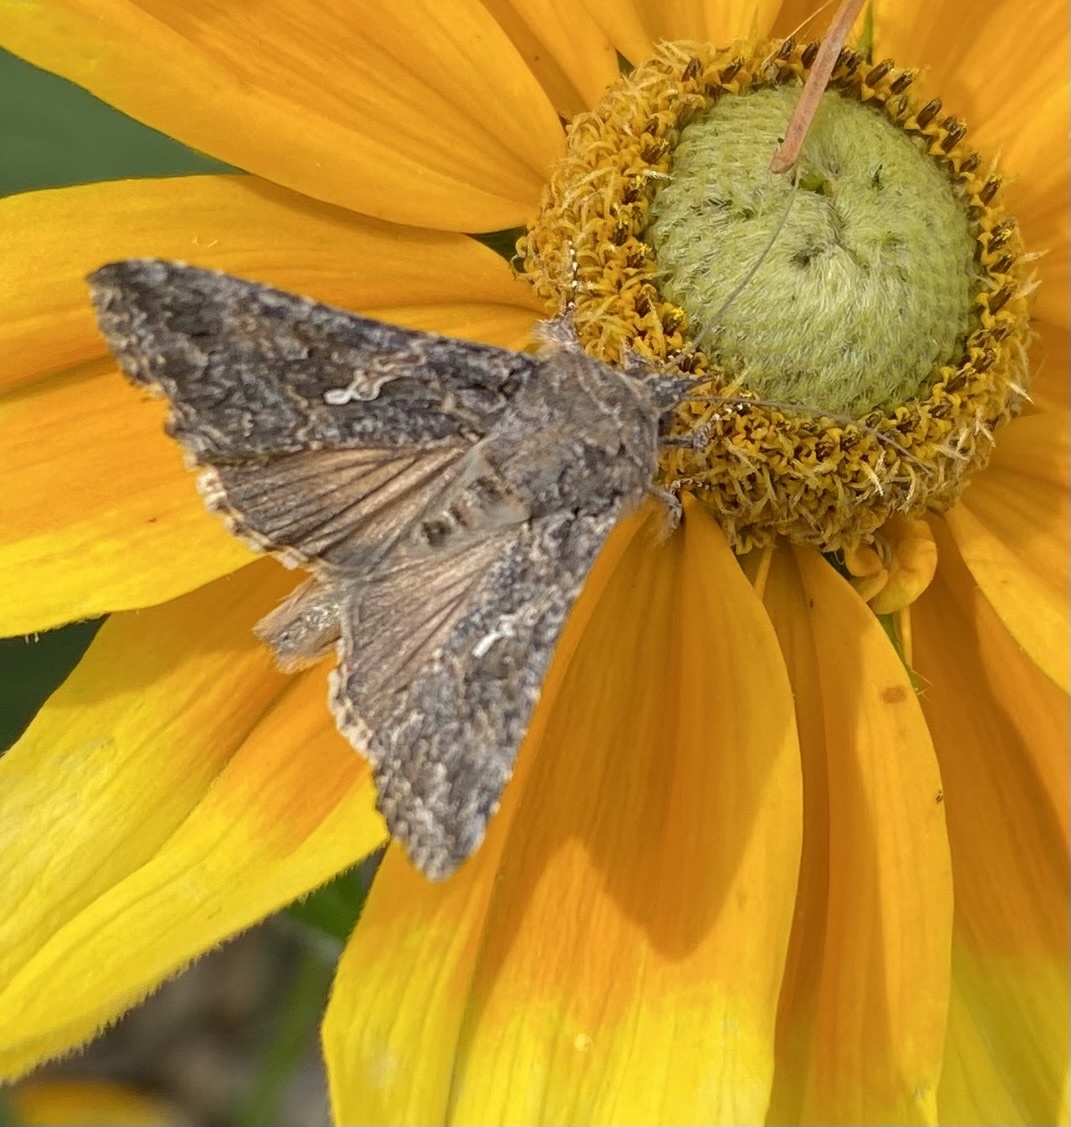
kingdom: Animalia
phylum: Arthropoda
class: Insecta
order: Lepidoptera
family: Noctuidae
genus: Trichoplusia
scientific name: Trichoplusia ni
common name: Ni moth
